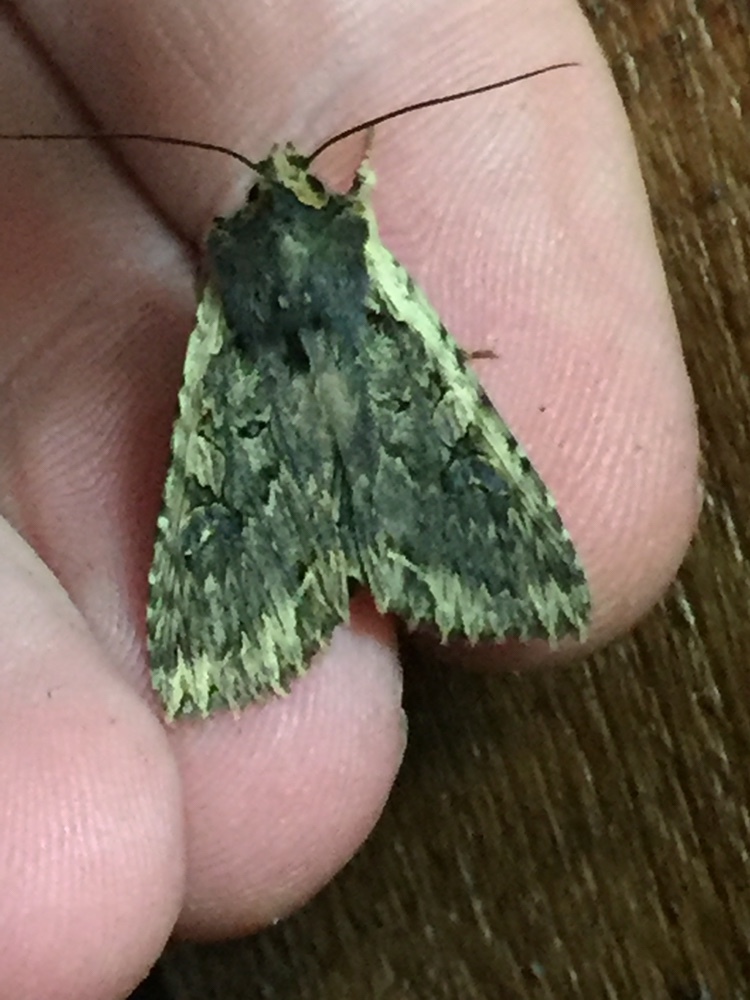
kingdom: Animalia
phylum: Arthropoda
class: Insecta
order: Lepidoptera
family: Noctuidae
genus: Meterana
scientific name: Meterana alcyone
